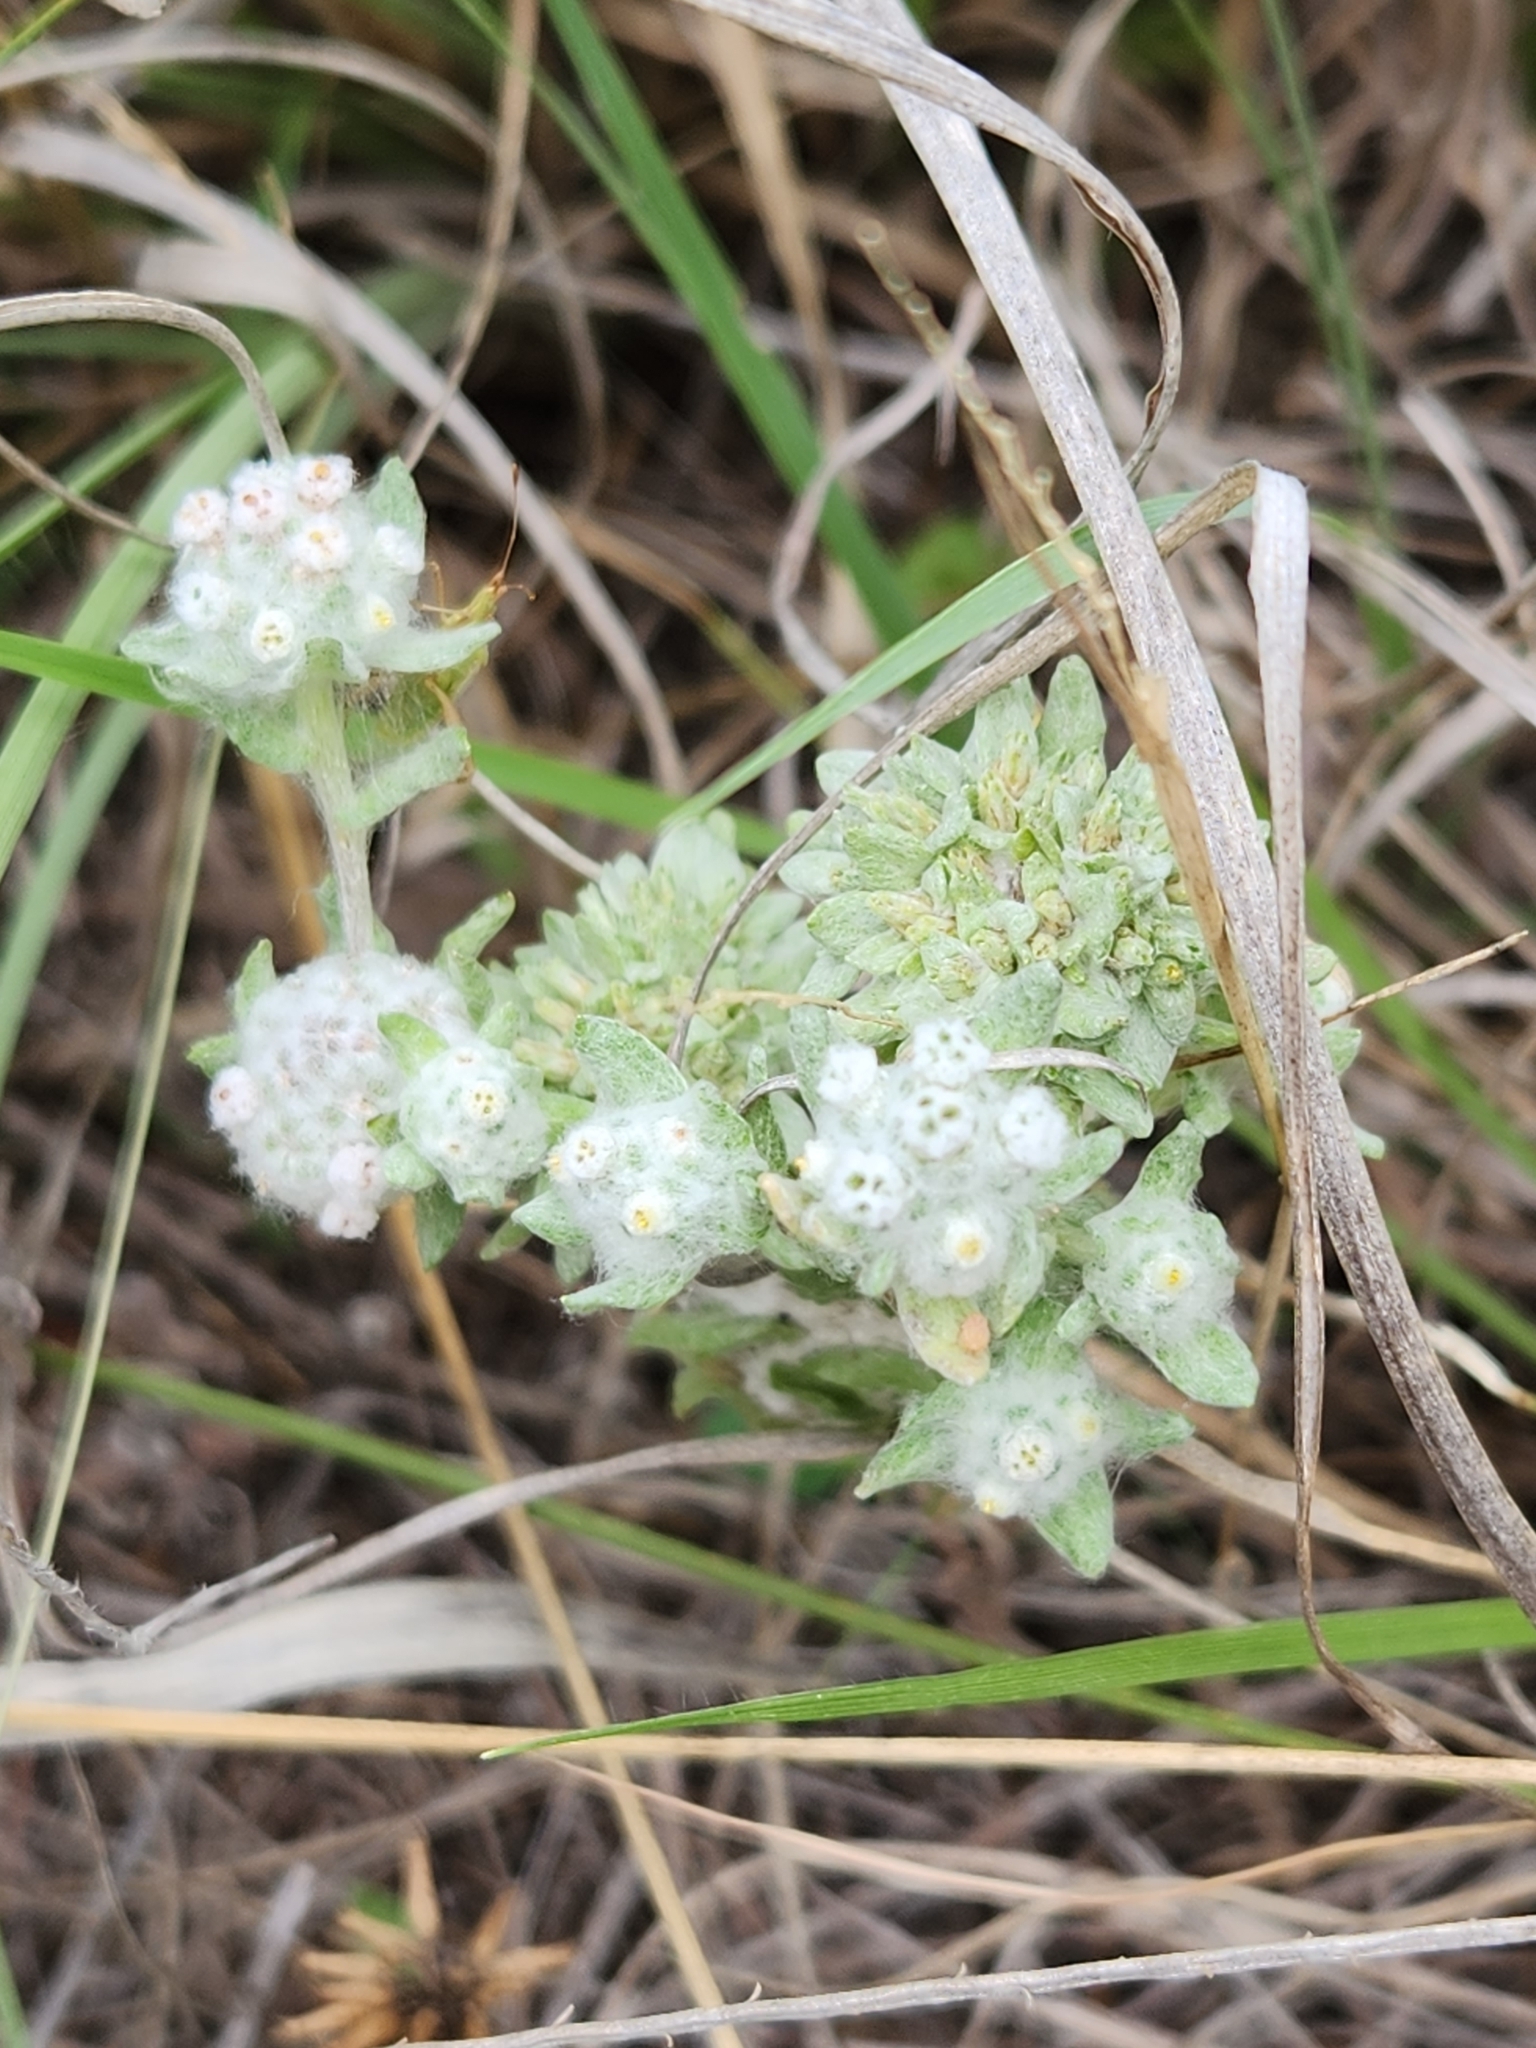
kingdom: Plantae
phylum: Tracheophyta
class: Magnoliopsida
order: Asterales
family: Asteraceae
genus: Diaperia
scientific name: Diaperia verna
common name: Many-stem rabbit-tobacco
